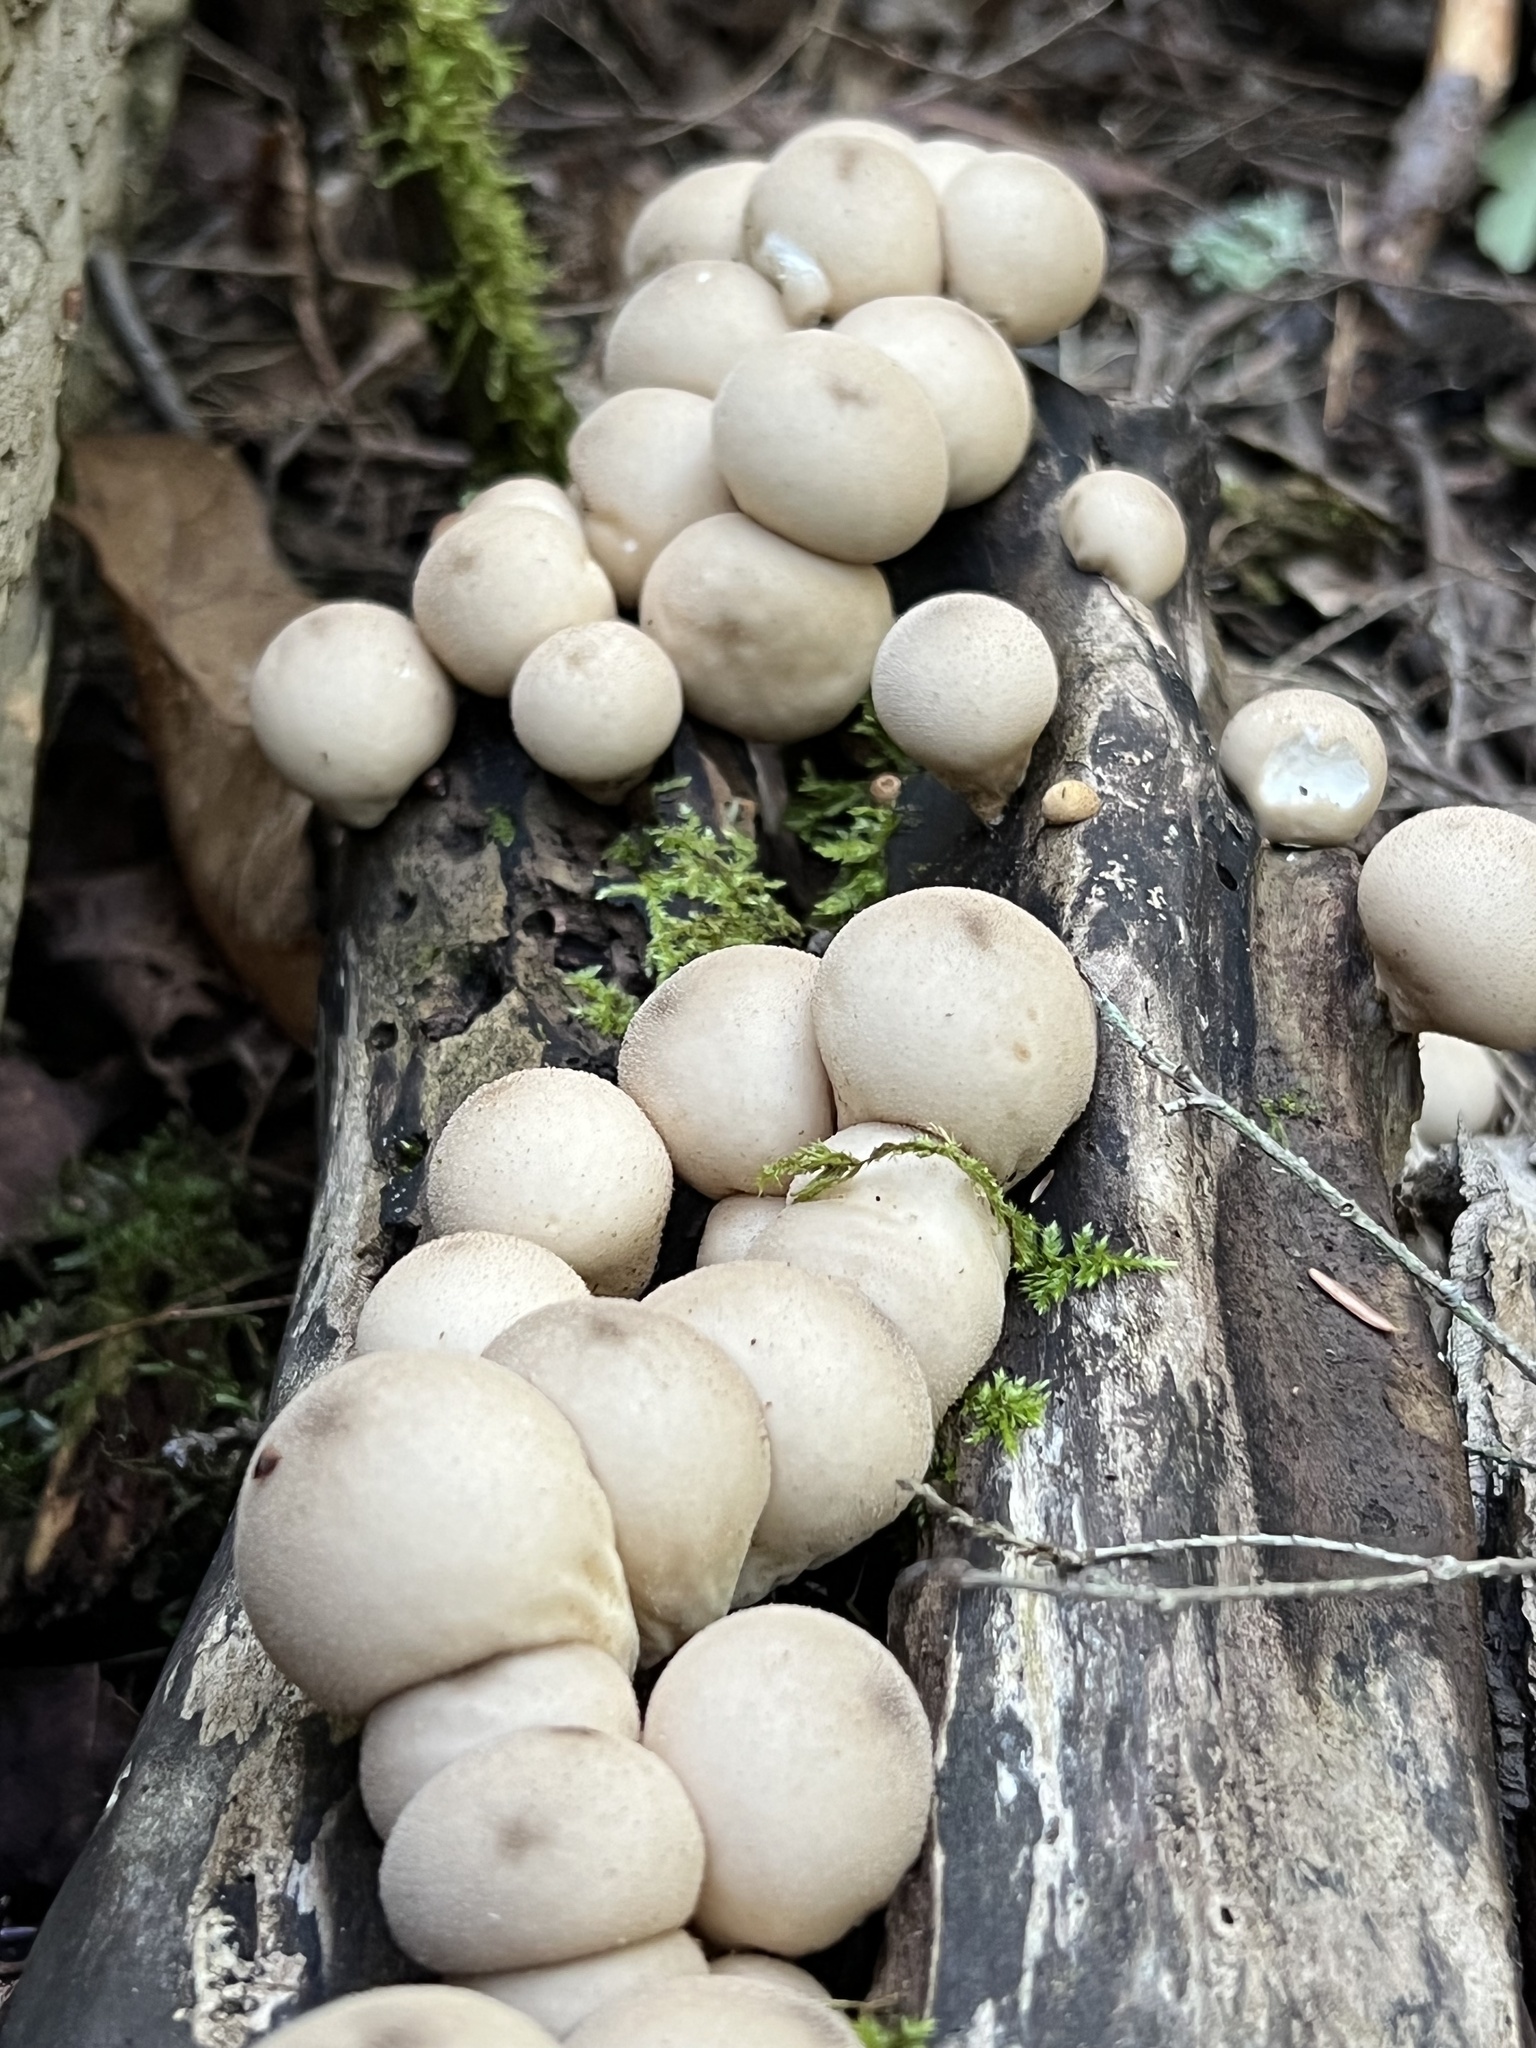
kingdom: Fungi
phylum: Basidiomycota
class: Agaricomycetes
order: Agaricales
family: Lycoperdaceae
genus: Apioperdon
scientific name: Apioperdon pyriforme
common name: Pear-shaped puffball
